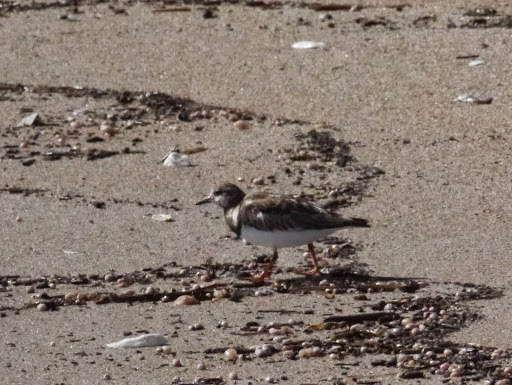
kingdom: Animalia
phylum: Chordata
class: Aves
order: Charadriiformes
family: Scolopacidae
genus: Arenaria
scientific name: Arenaria interpres
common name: Ruddy turnstone
